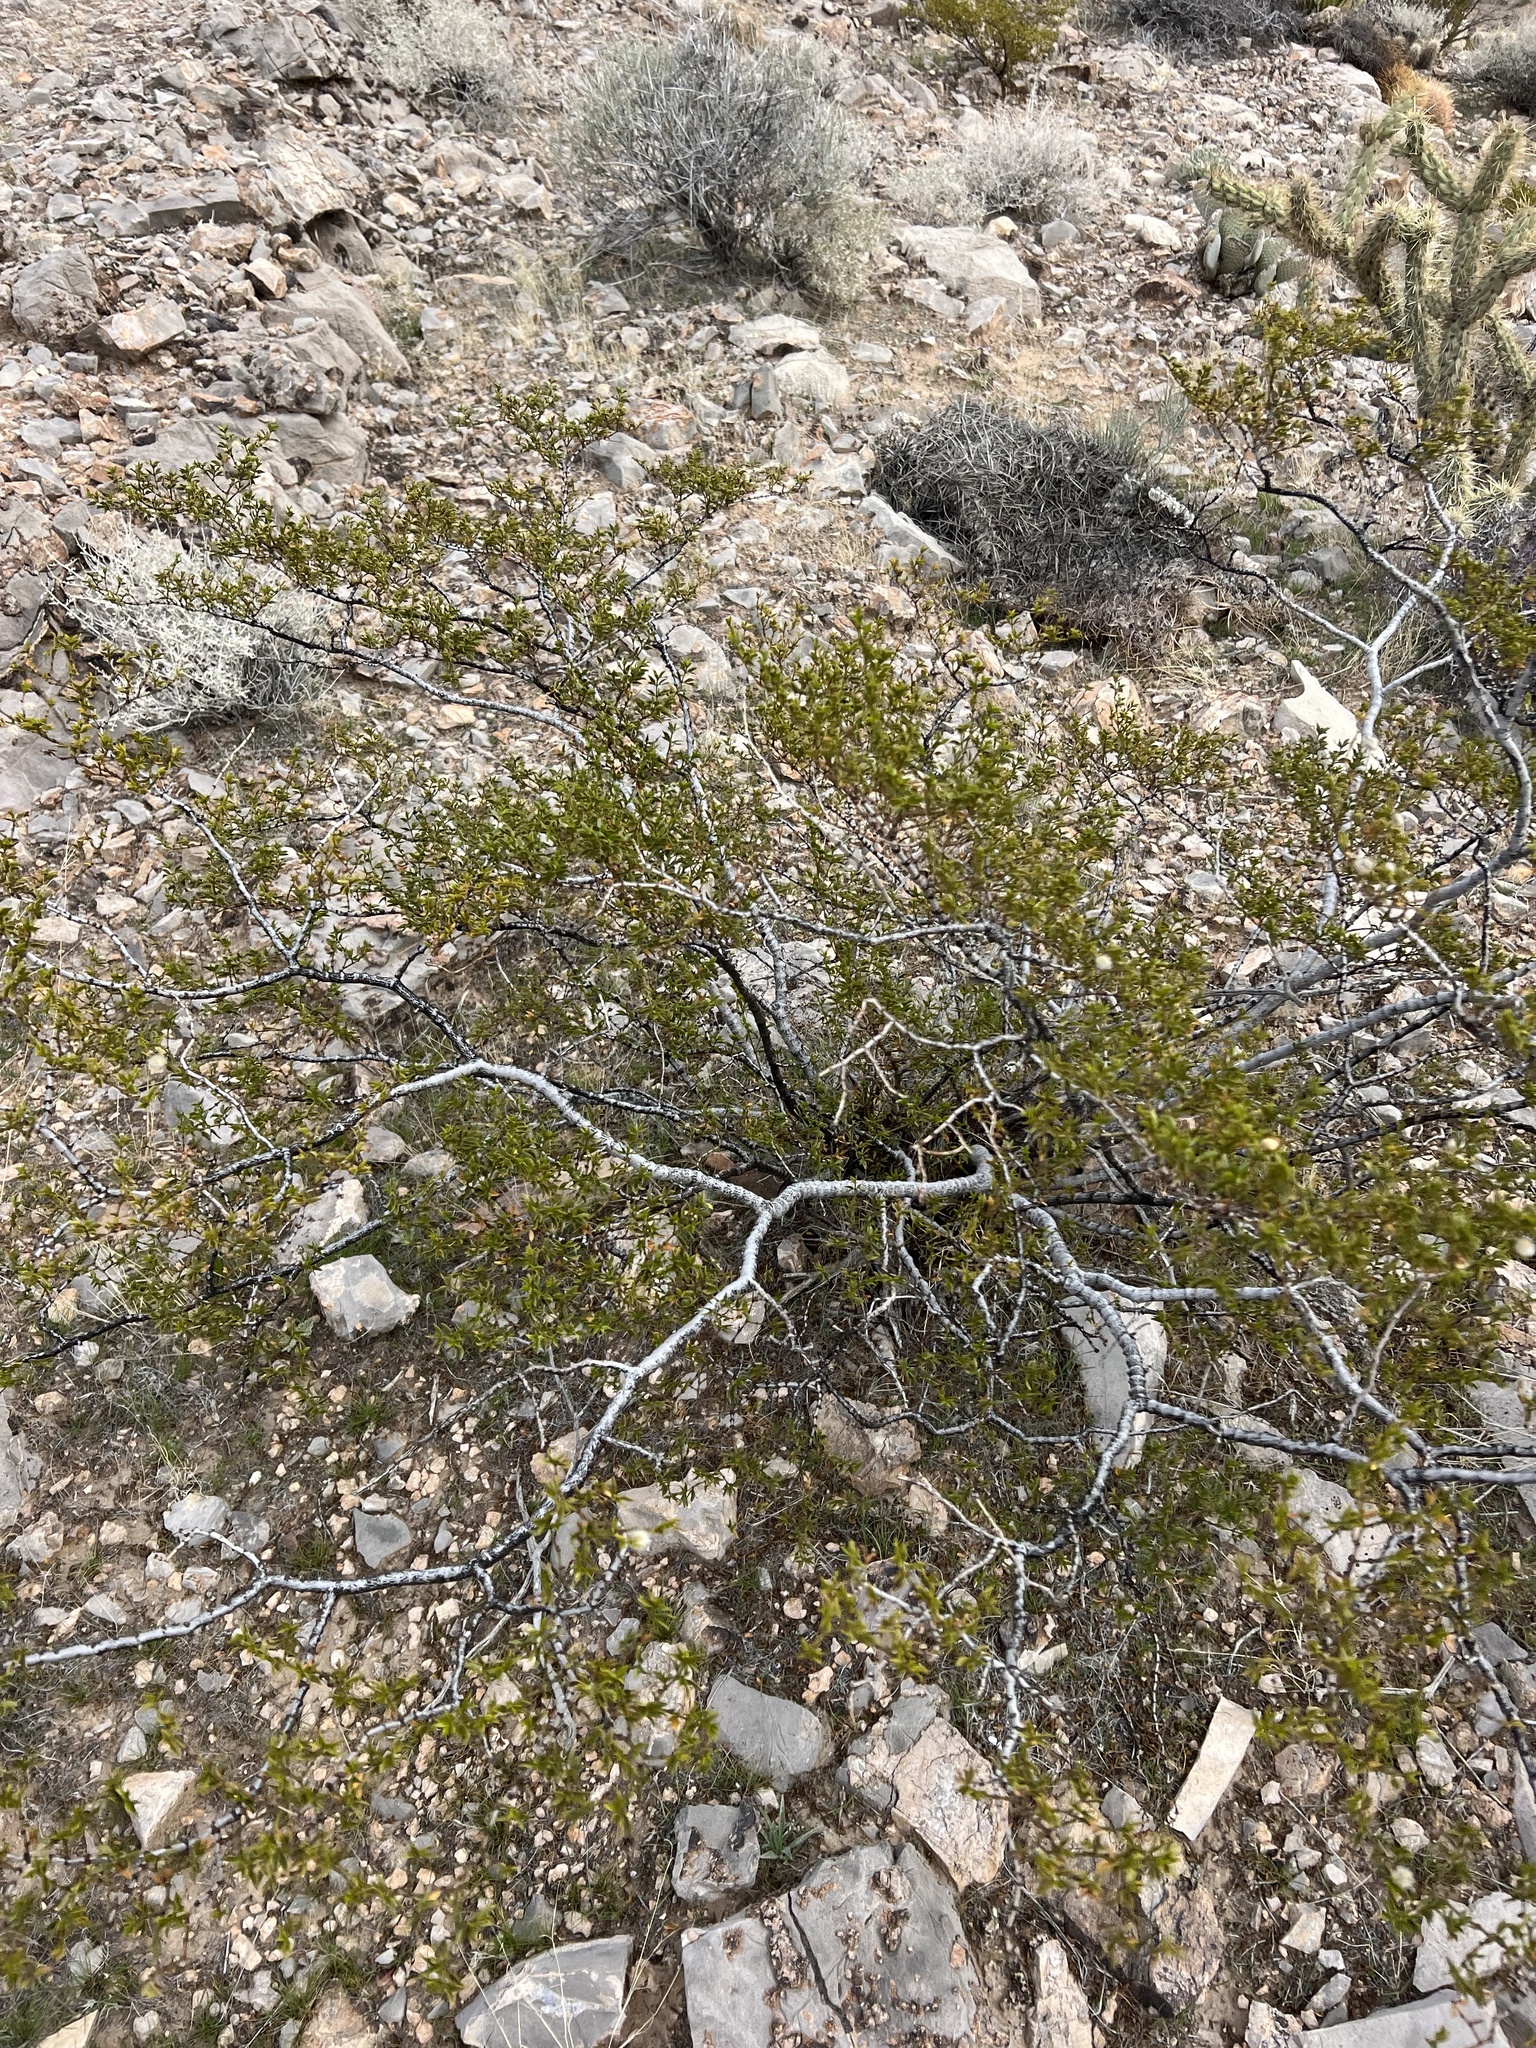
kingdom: Plantae
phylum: Tracheophyta
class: Magnoliopsida
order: Zygophyllales
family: Zygophyllaceae
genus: Larrea
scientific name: Larrea tridentata
